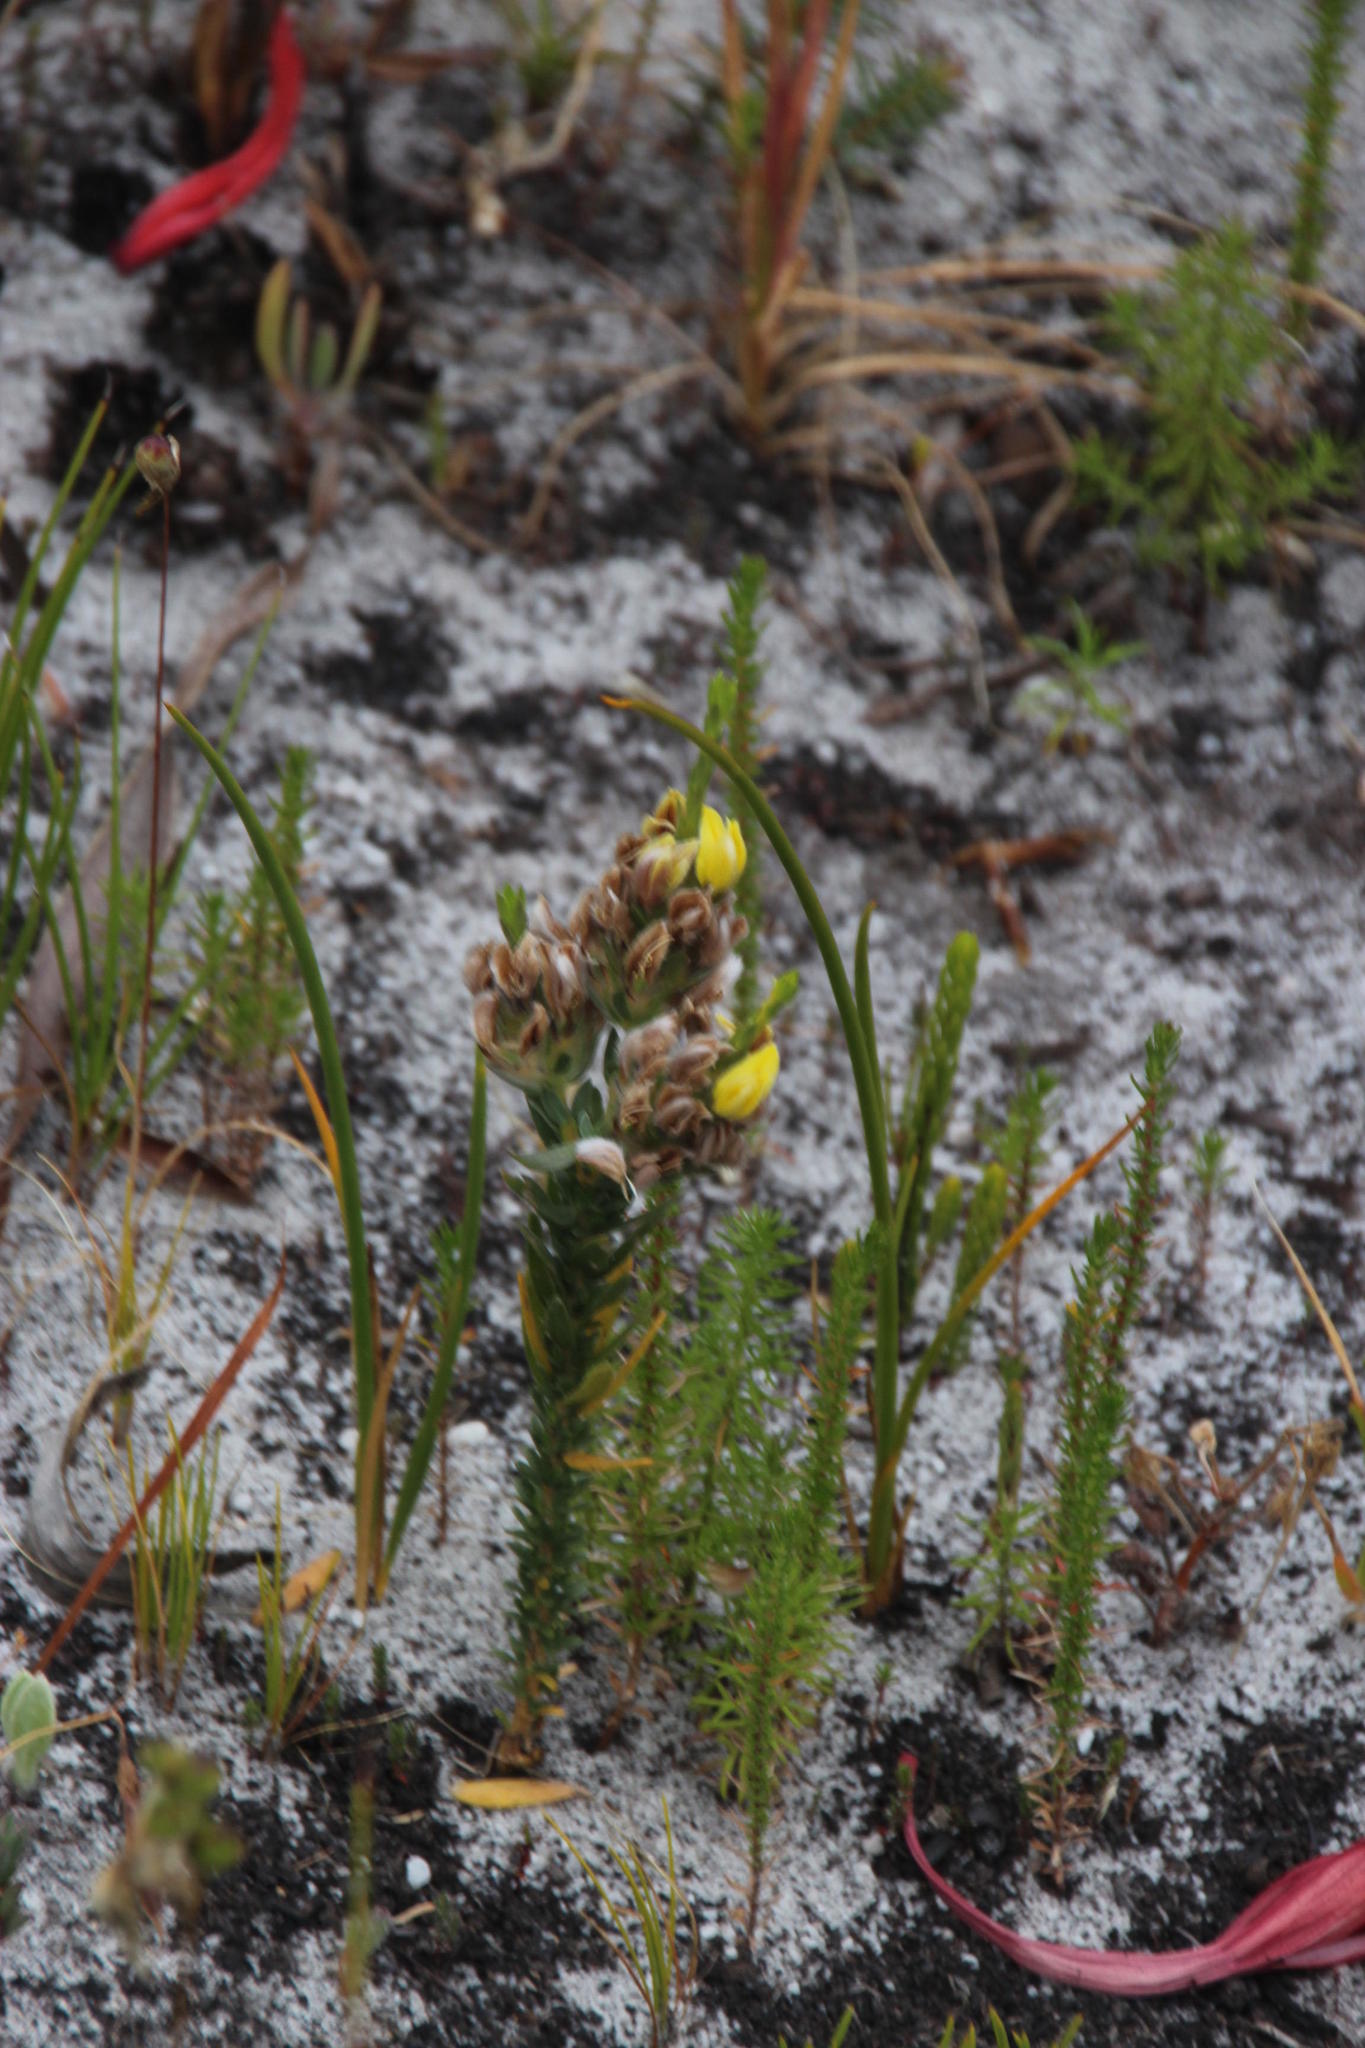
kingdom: Plantae
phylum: Tracheophyta
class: Magnoliopsida
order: Fabales
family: Fabaceae
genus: Aspalathus
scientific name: Aspalathus sericea
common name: Silky pea
